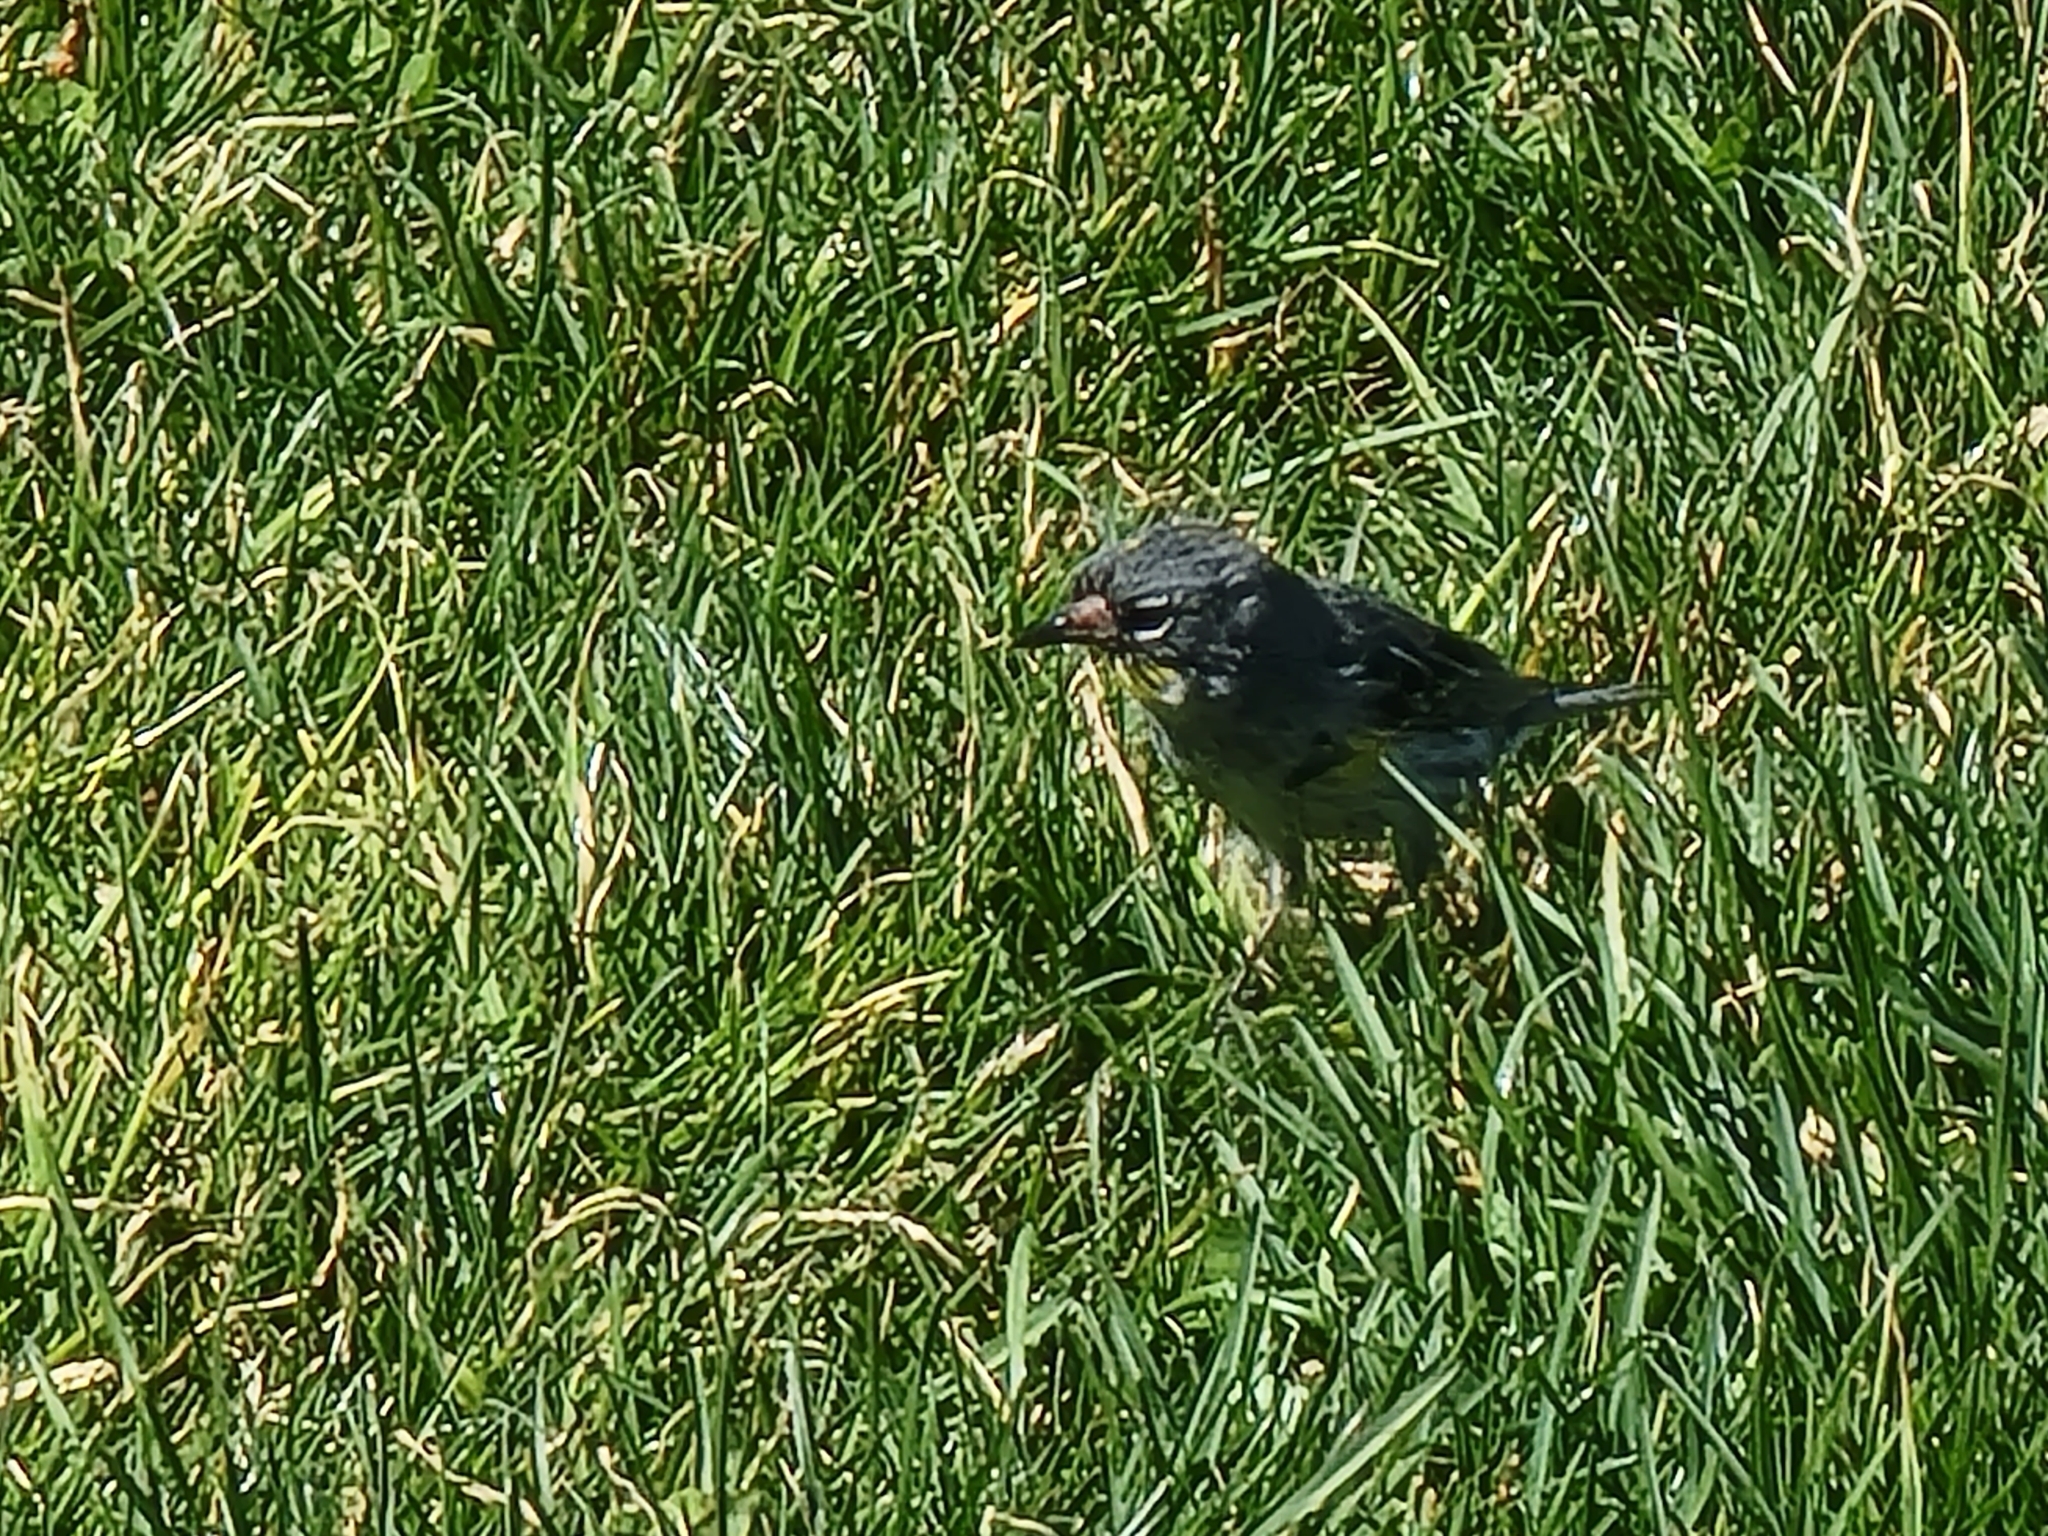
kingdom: Animalia
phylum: Chordata
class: Aves
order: Passeriformes
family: Parulidae
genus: Setophaga
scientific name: Setophaga coronata
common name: Myrtle warbler
